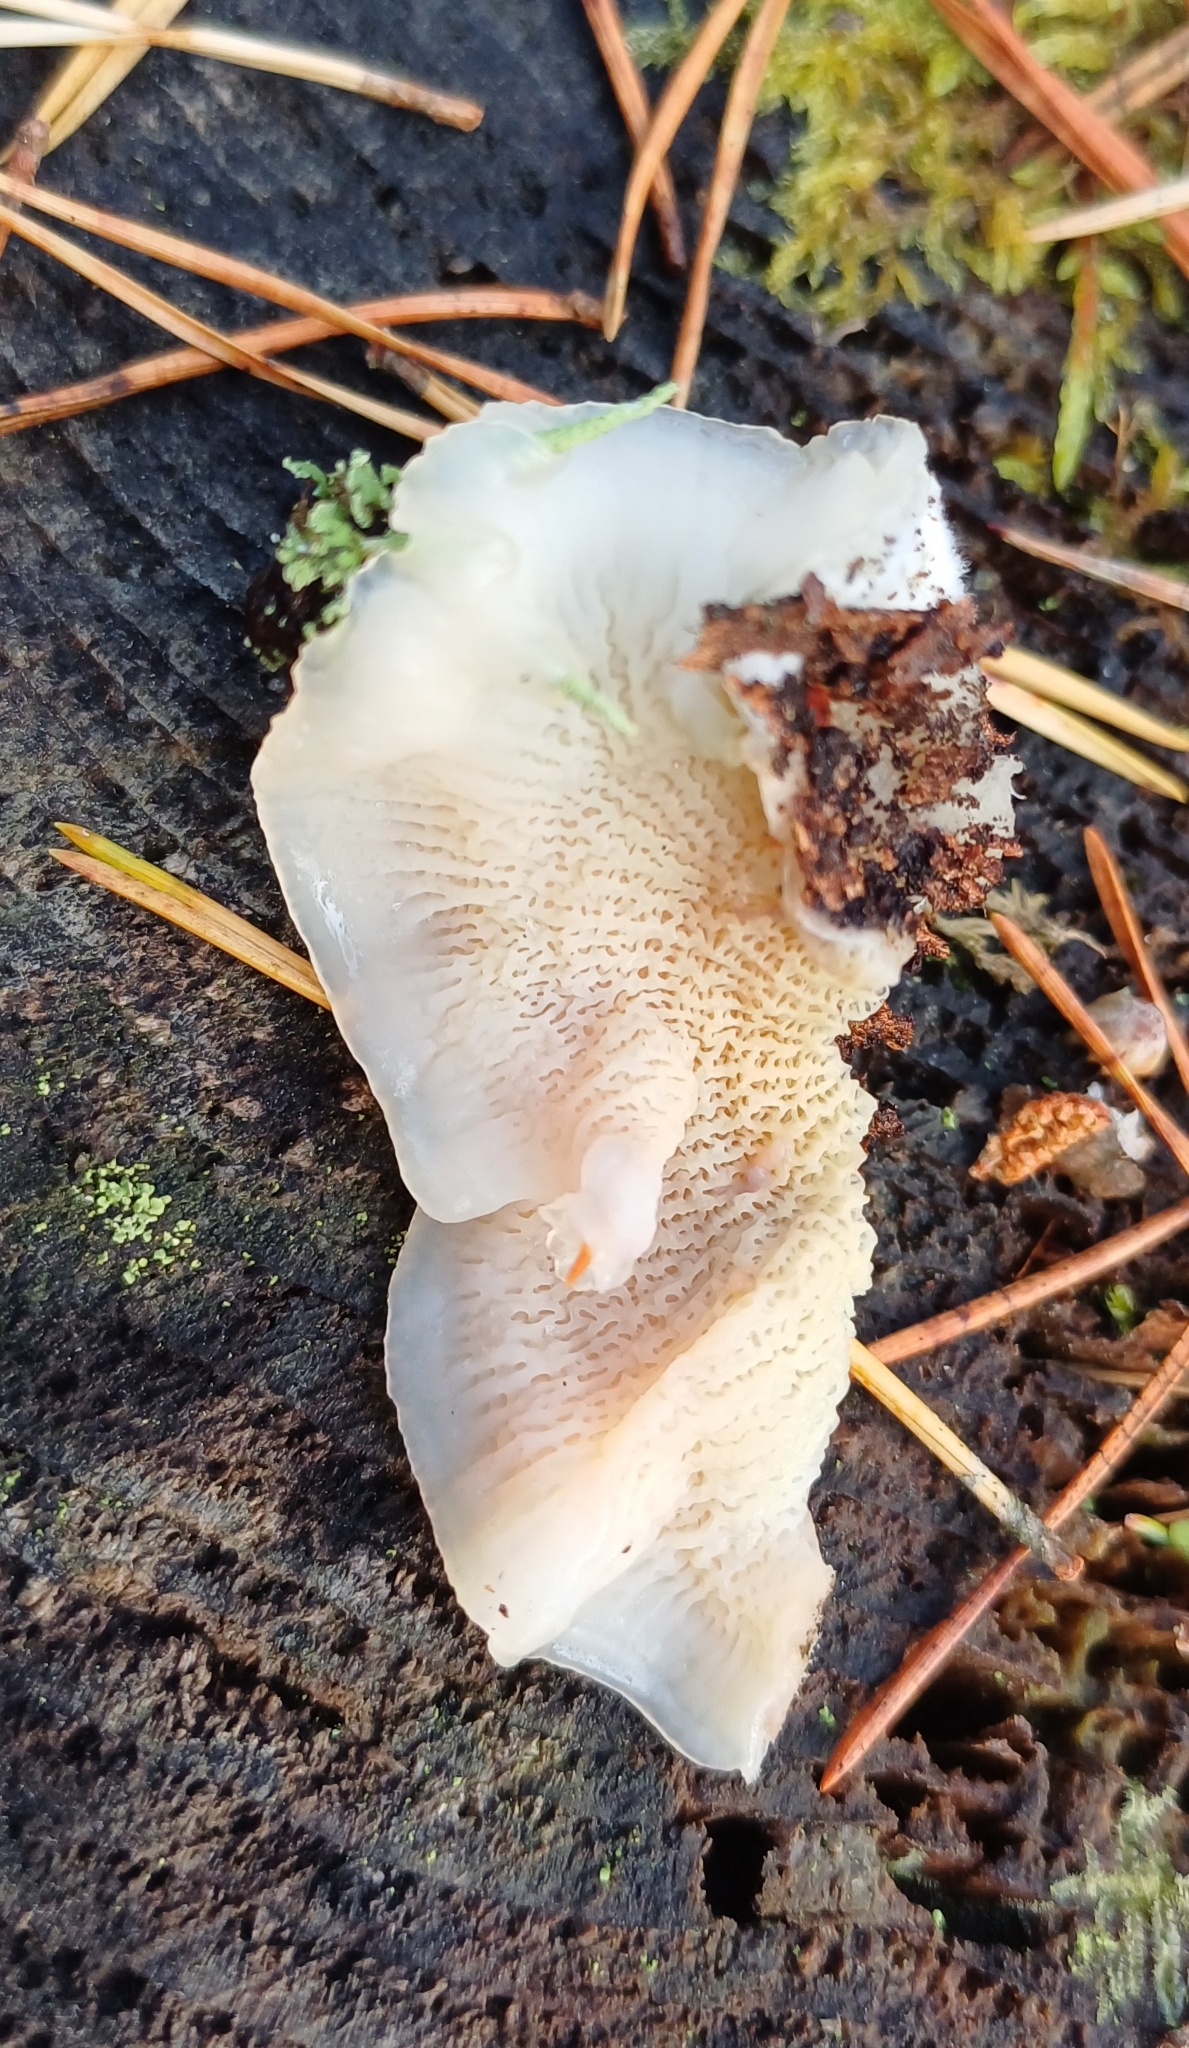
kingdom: Fungi
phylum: Basidiomycota
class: Agaricomycetes
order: Polyporales
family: Meruliaceae
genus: Phlebia
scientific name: Phlebia tremellosa
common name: Jelly rot
